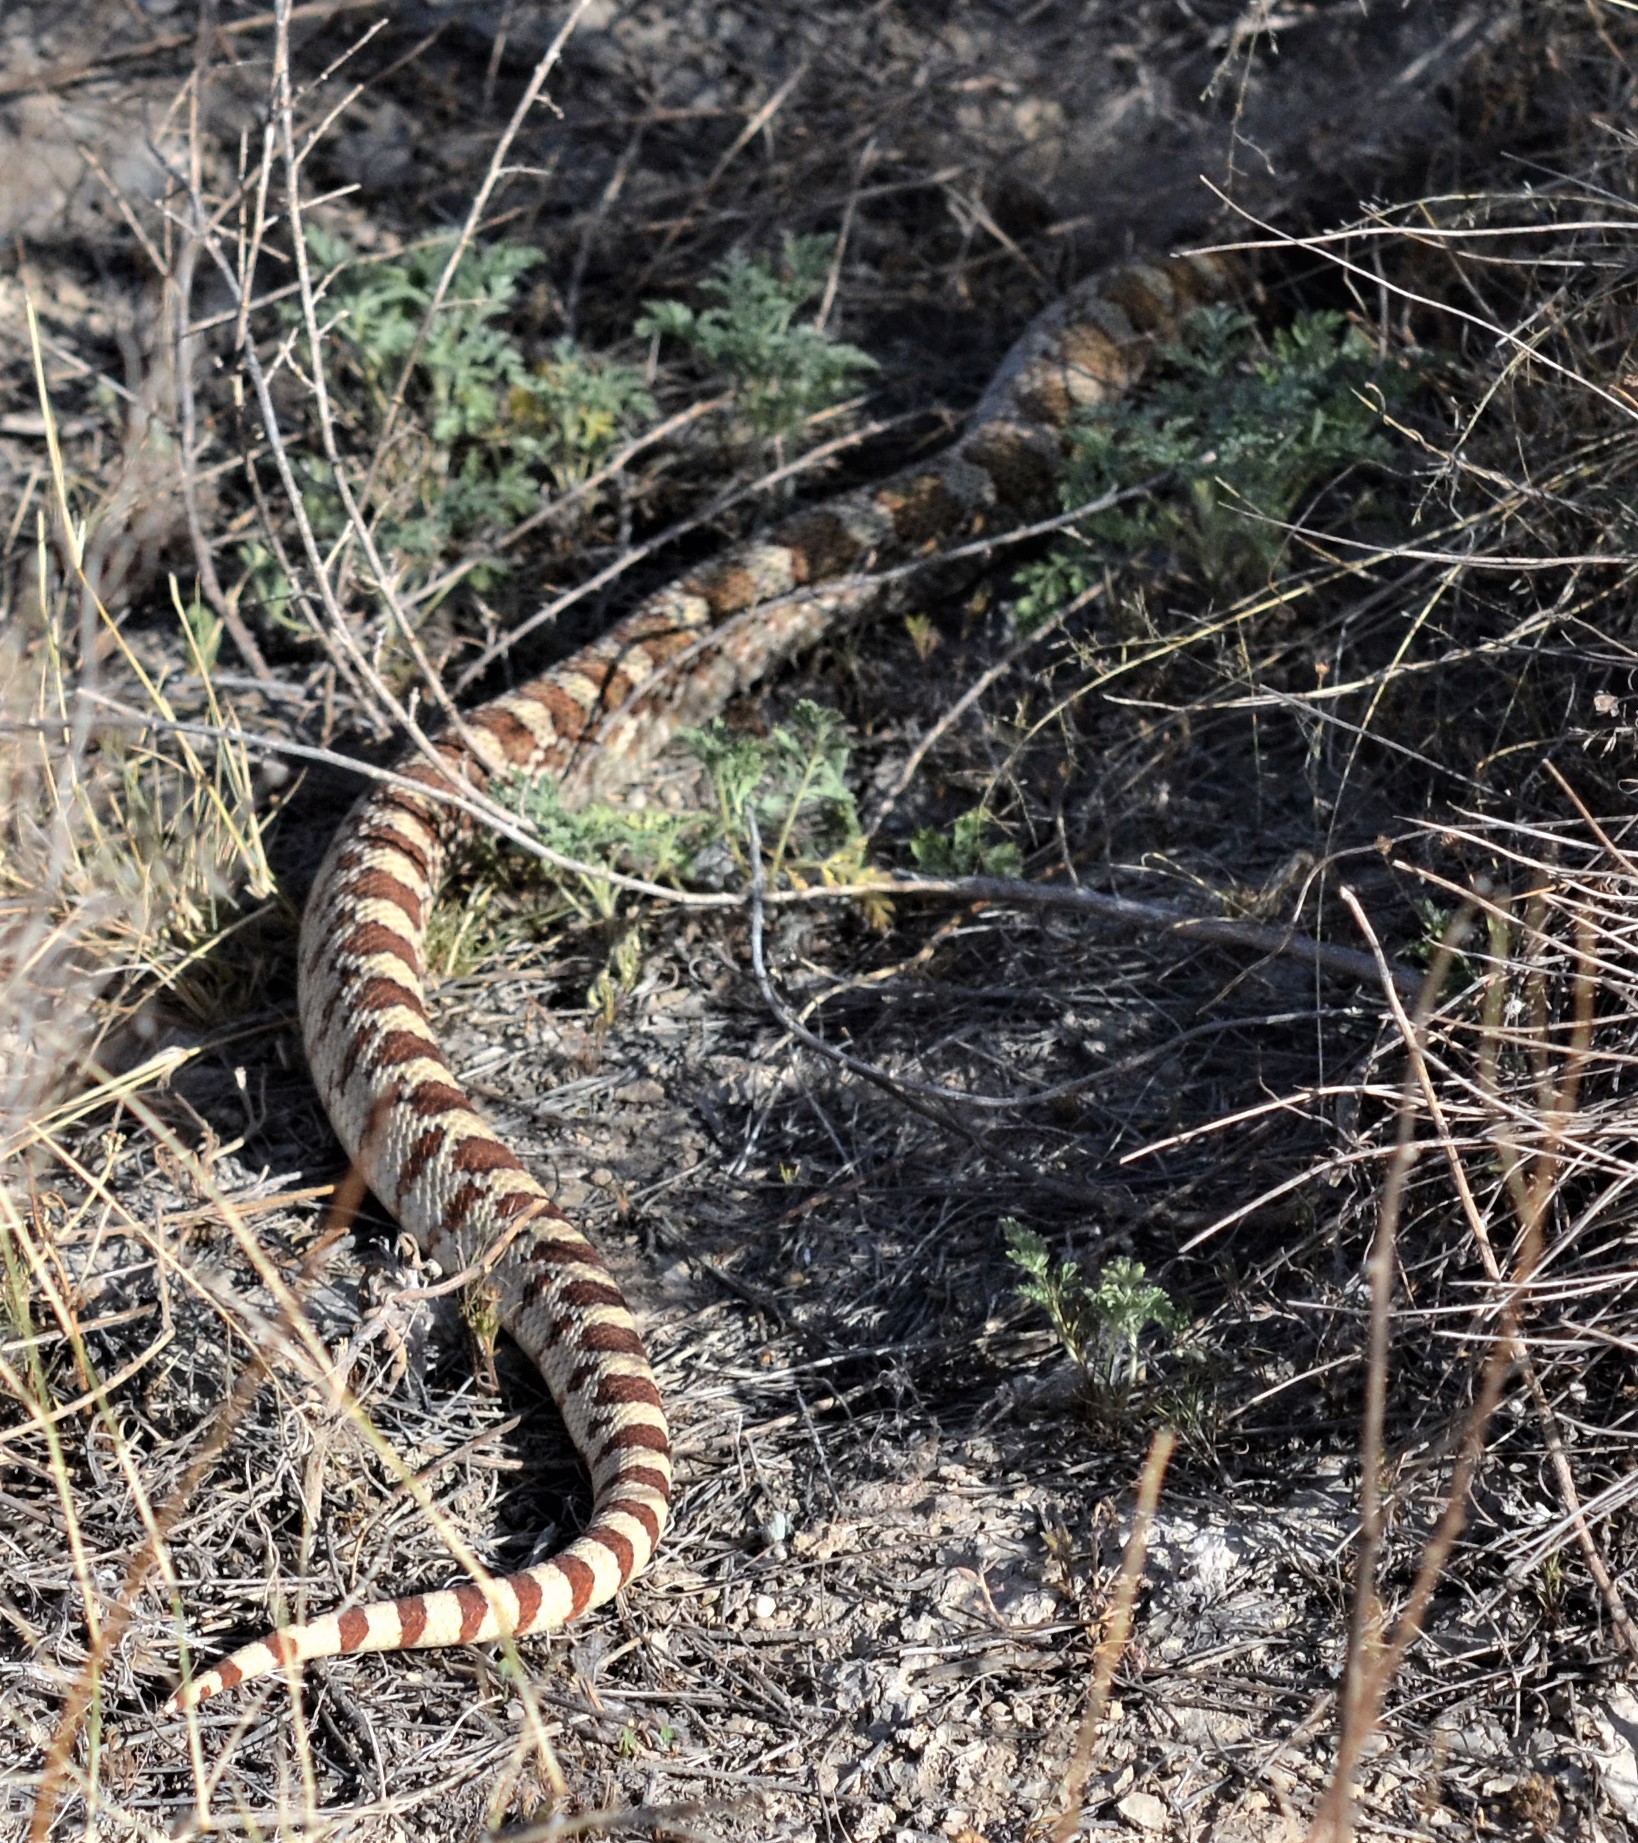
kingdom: Animalia
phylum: Chordata
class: Squamata
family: Colubridae
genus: Pituophis
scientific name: Pituophis catenifer
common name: Gopher snake
